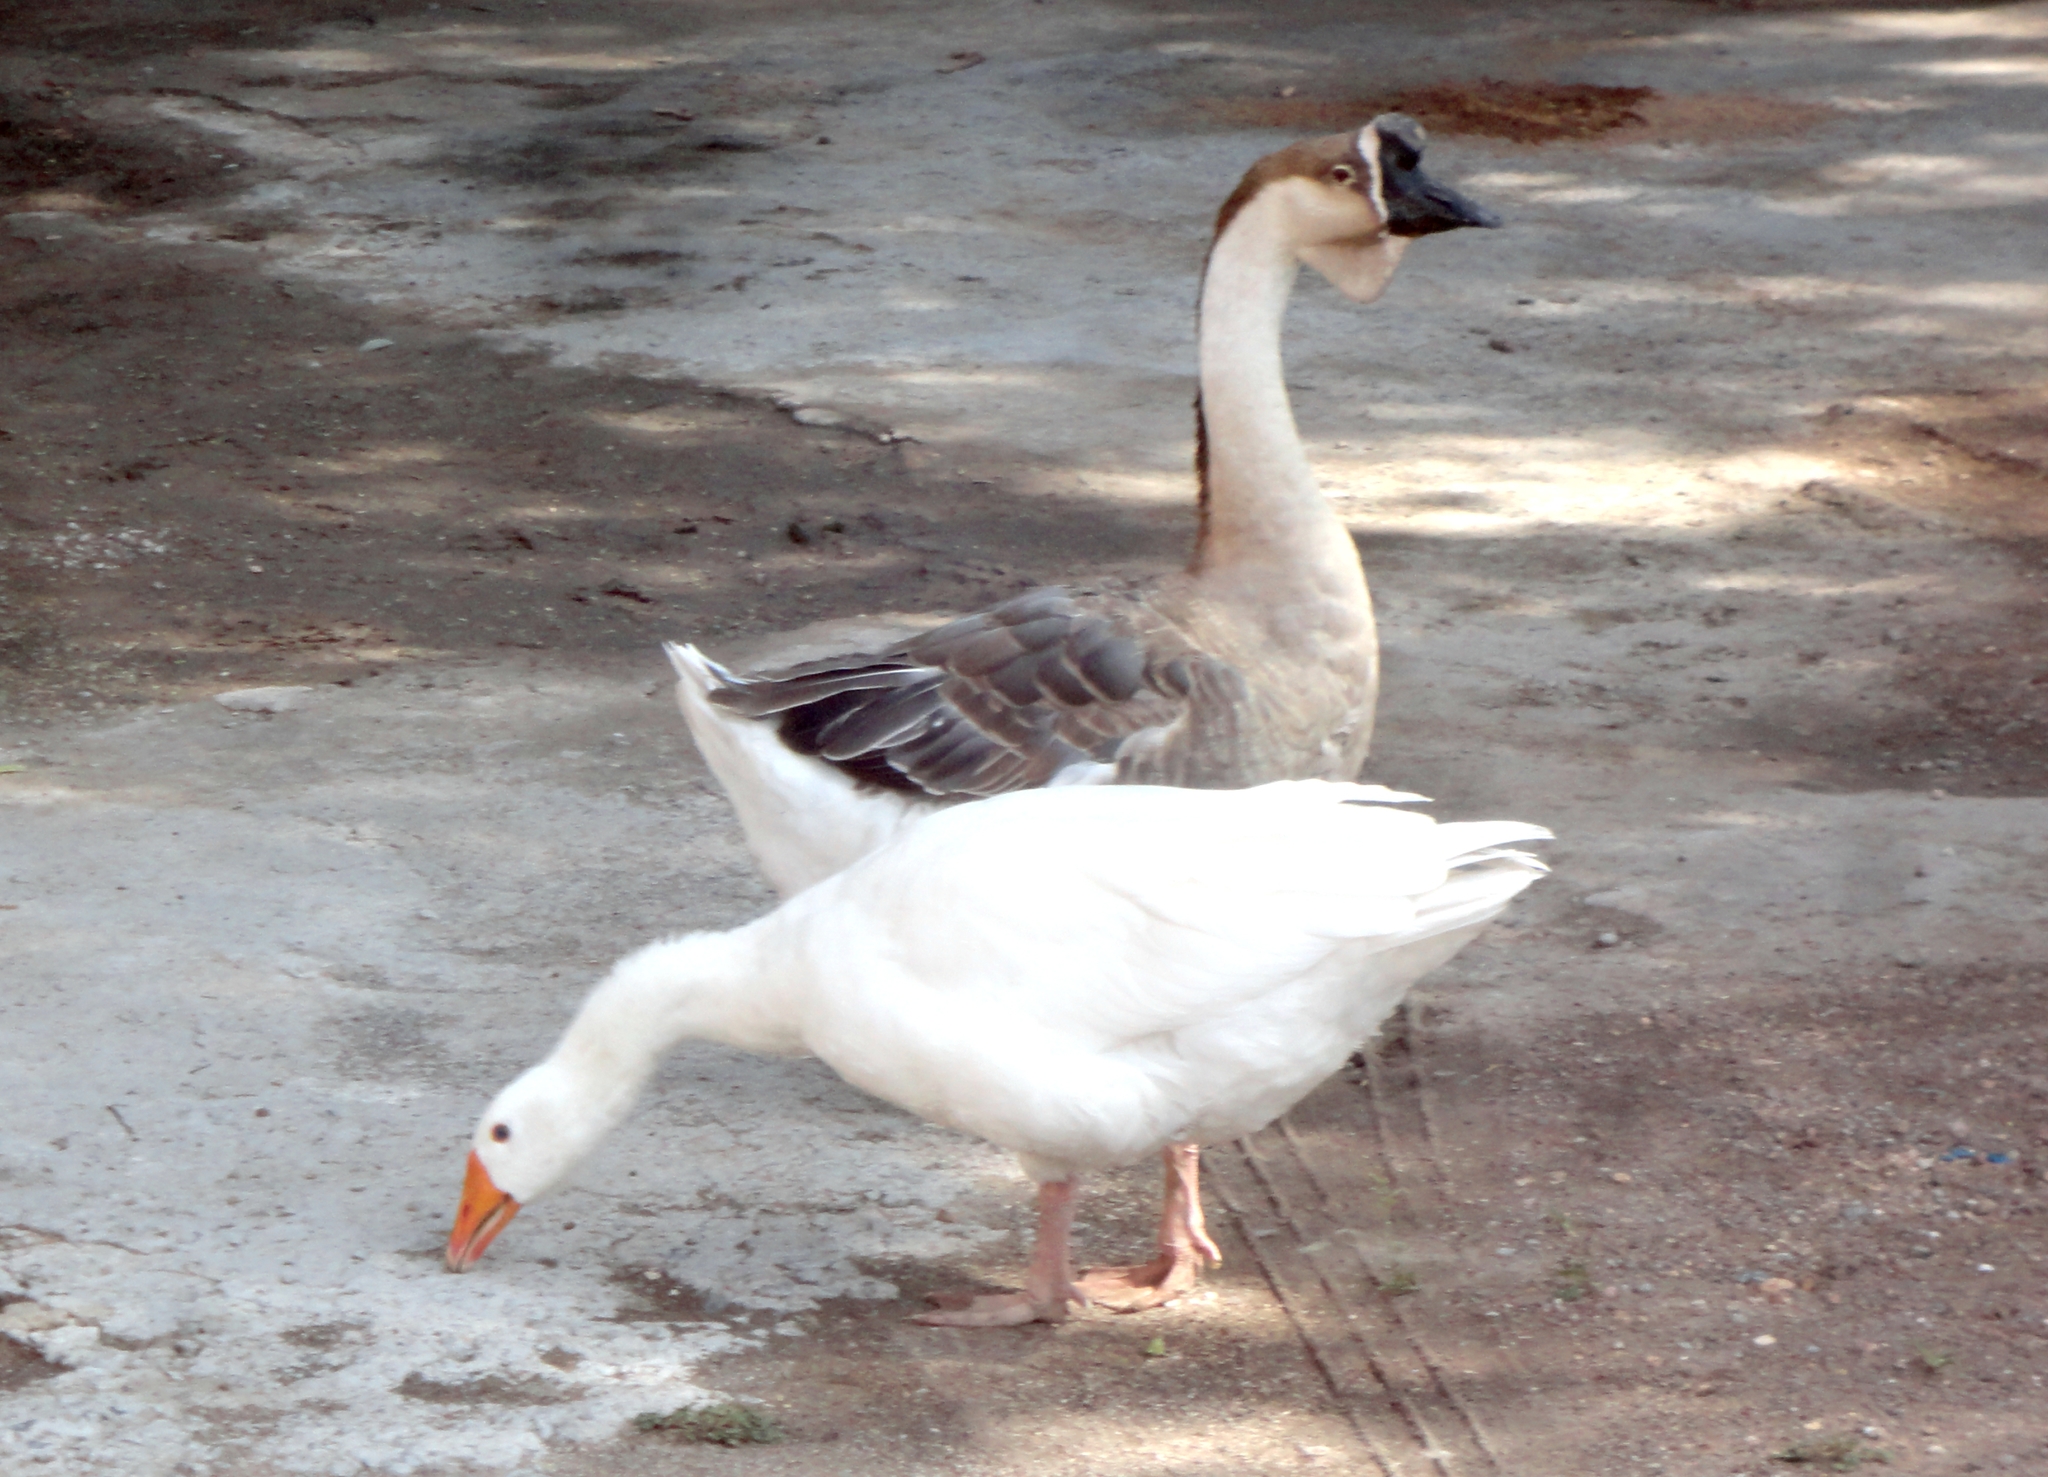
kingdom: Animalia
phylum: Chordata
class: Aves
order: Anseriformes
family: Anatidae
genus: Anser
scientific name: Anser cygnoides
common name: Swan goose
